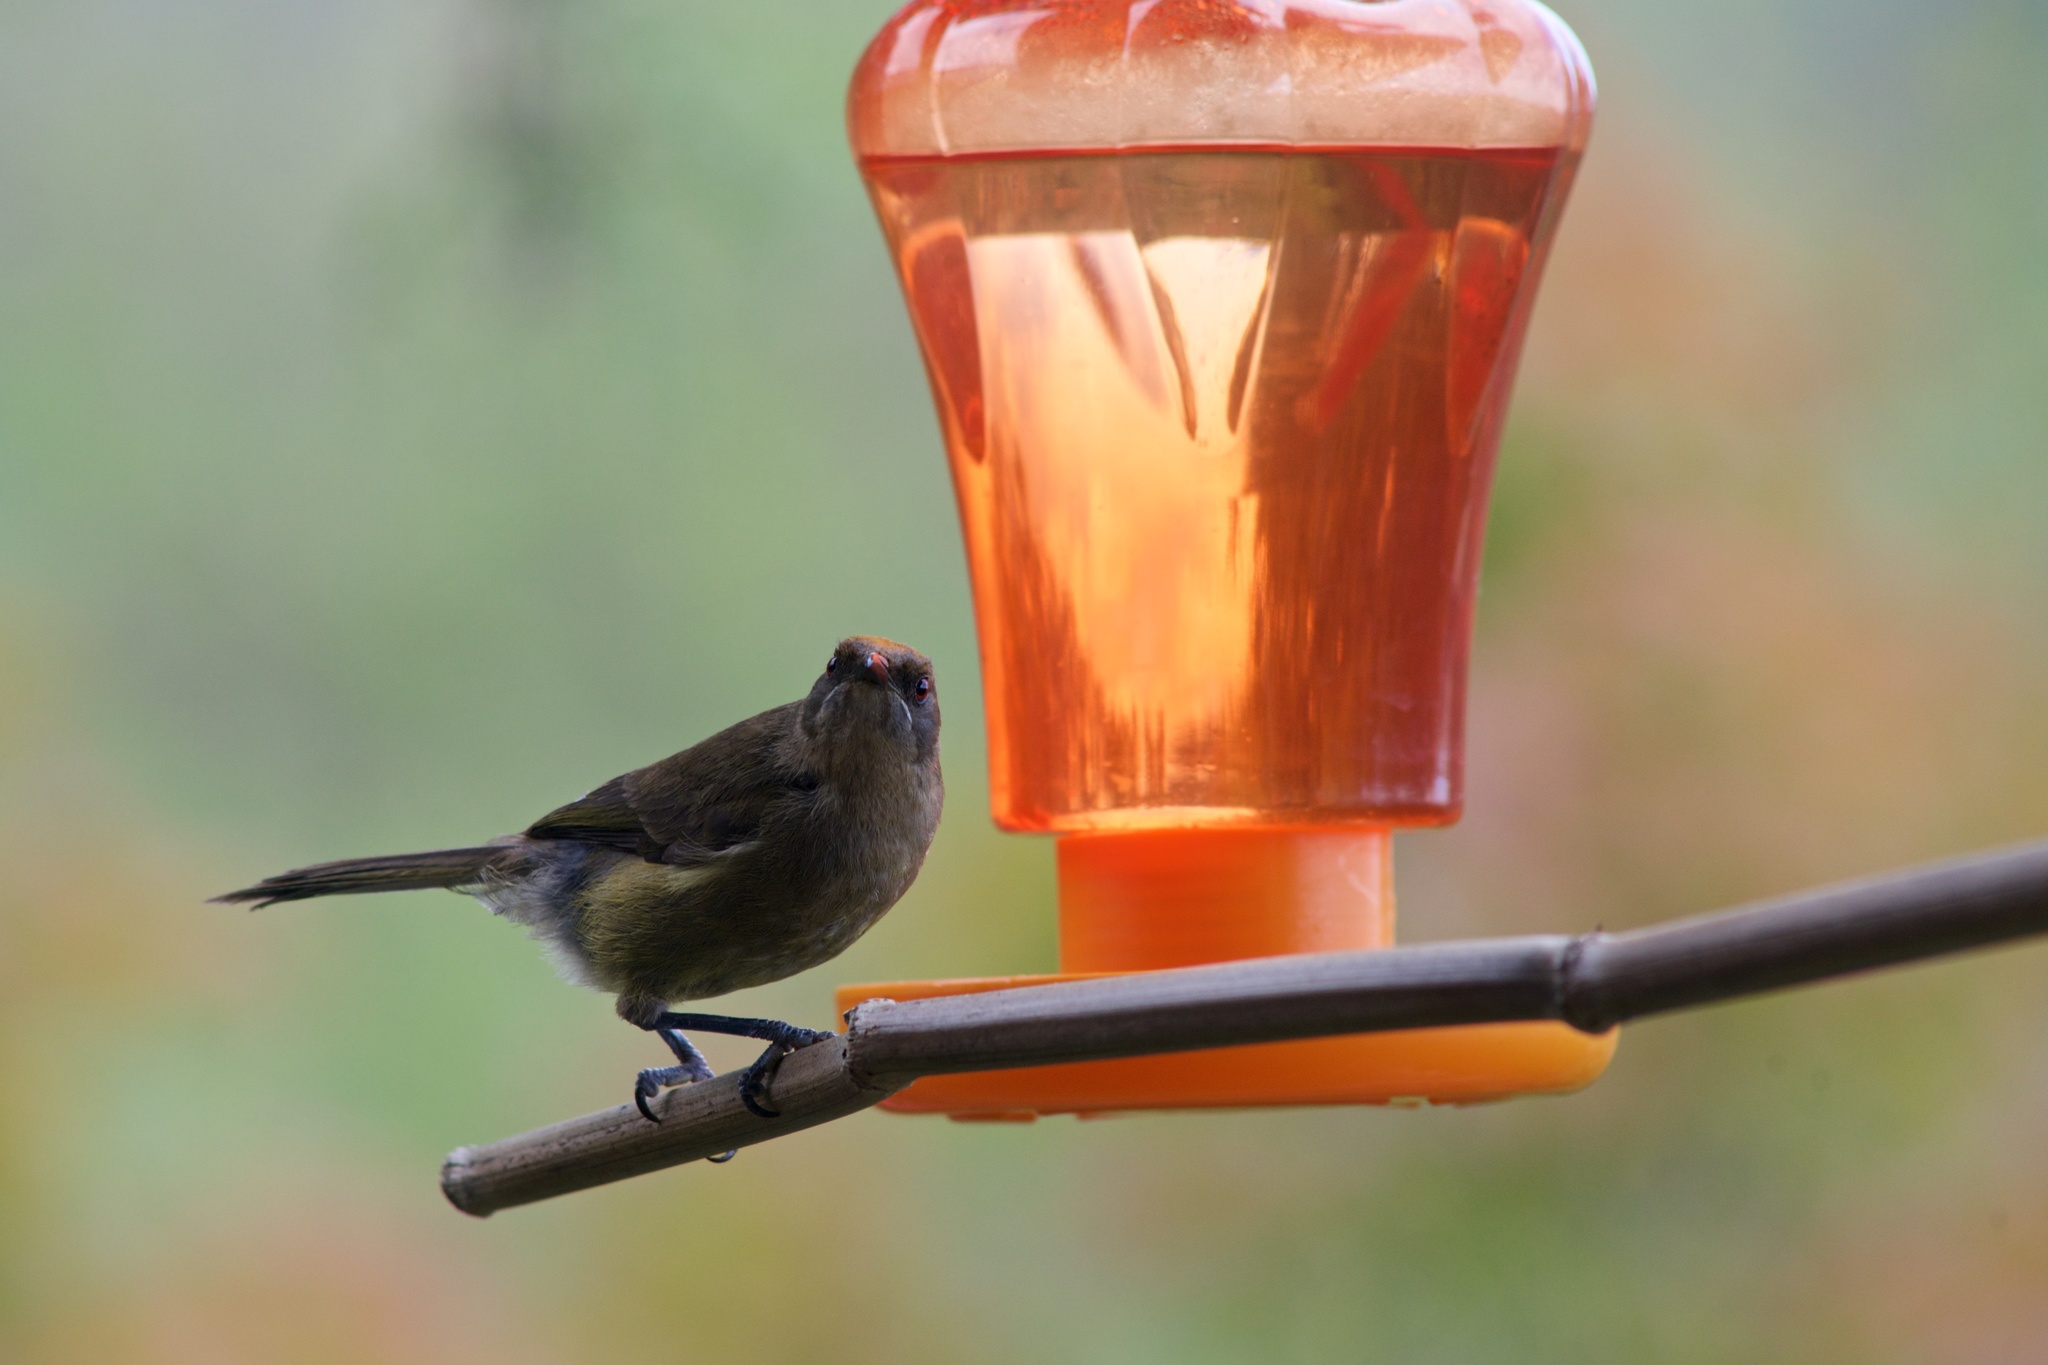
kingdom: Animalia
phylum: Chordata
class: Aves
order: Passeriformes
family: Meliphagidae
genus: Anthornis
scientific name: Anthornis melanura
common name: New zealand bellbird
